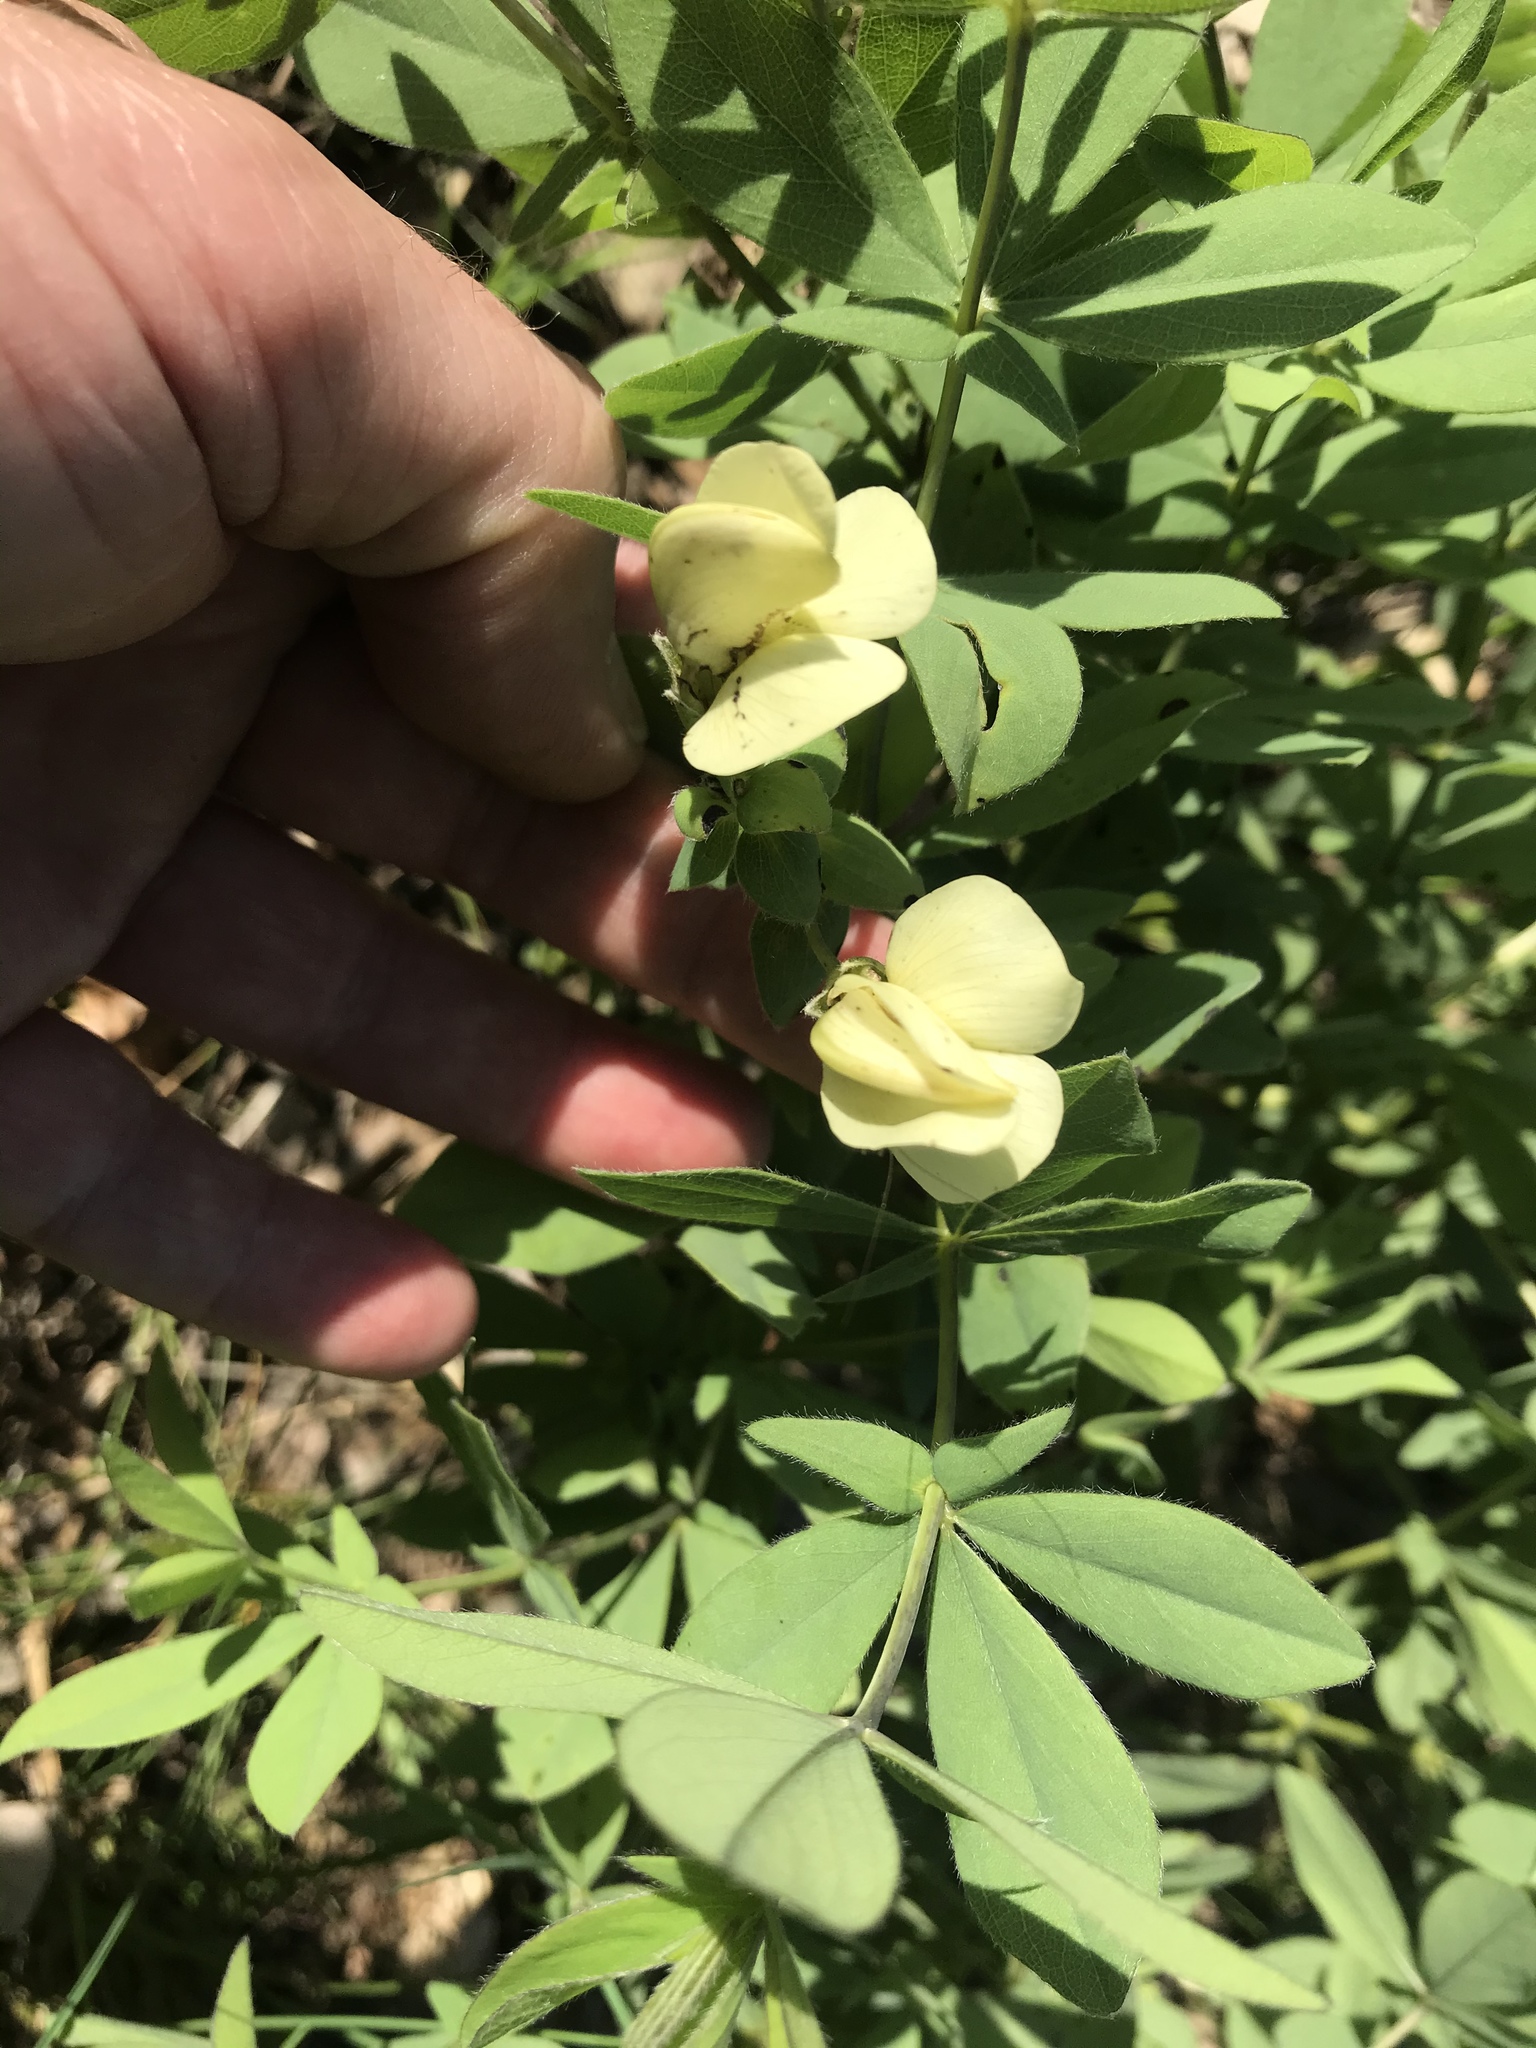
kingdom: Plantae
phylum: Tracheophyta
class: Magnoliopsida
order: Fabales
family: Fabaceae
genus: Baptisia
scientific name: Baptisia bracteata
